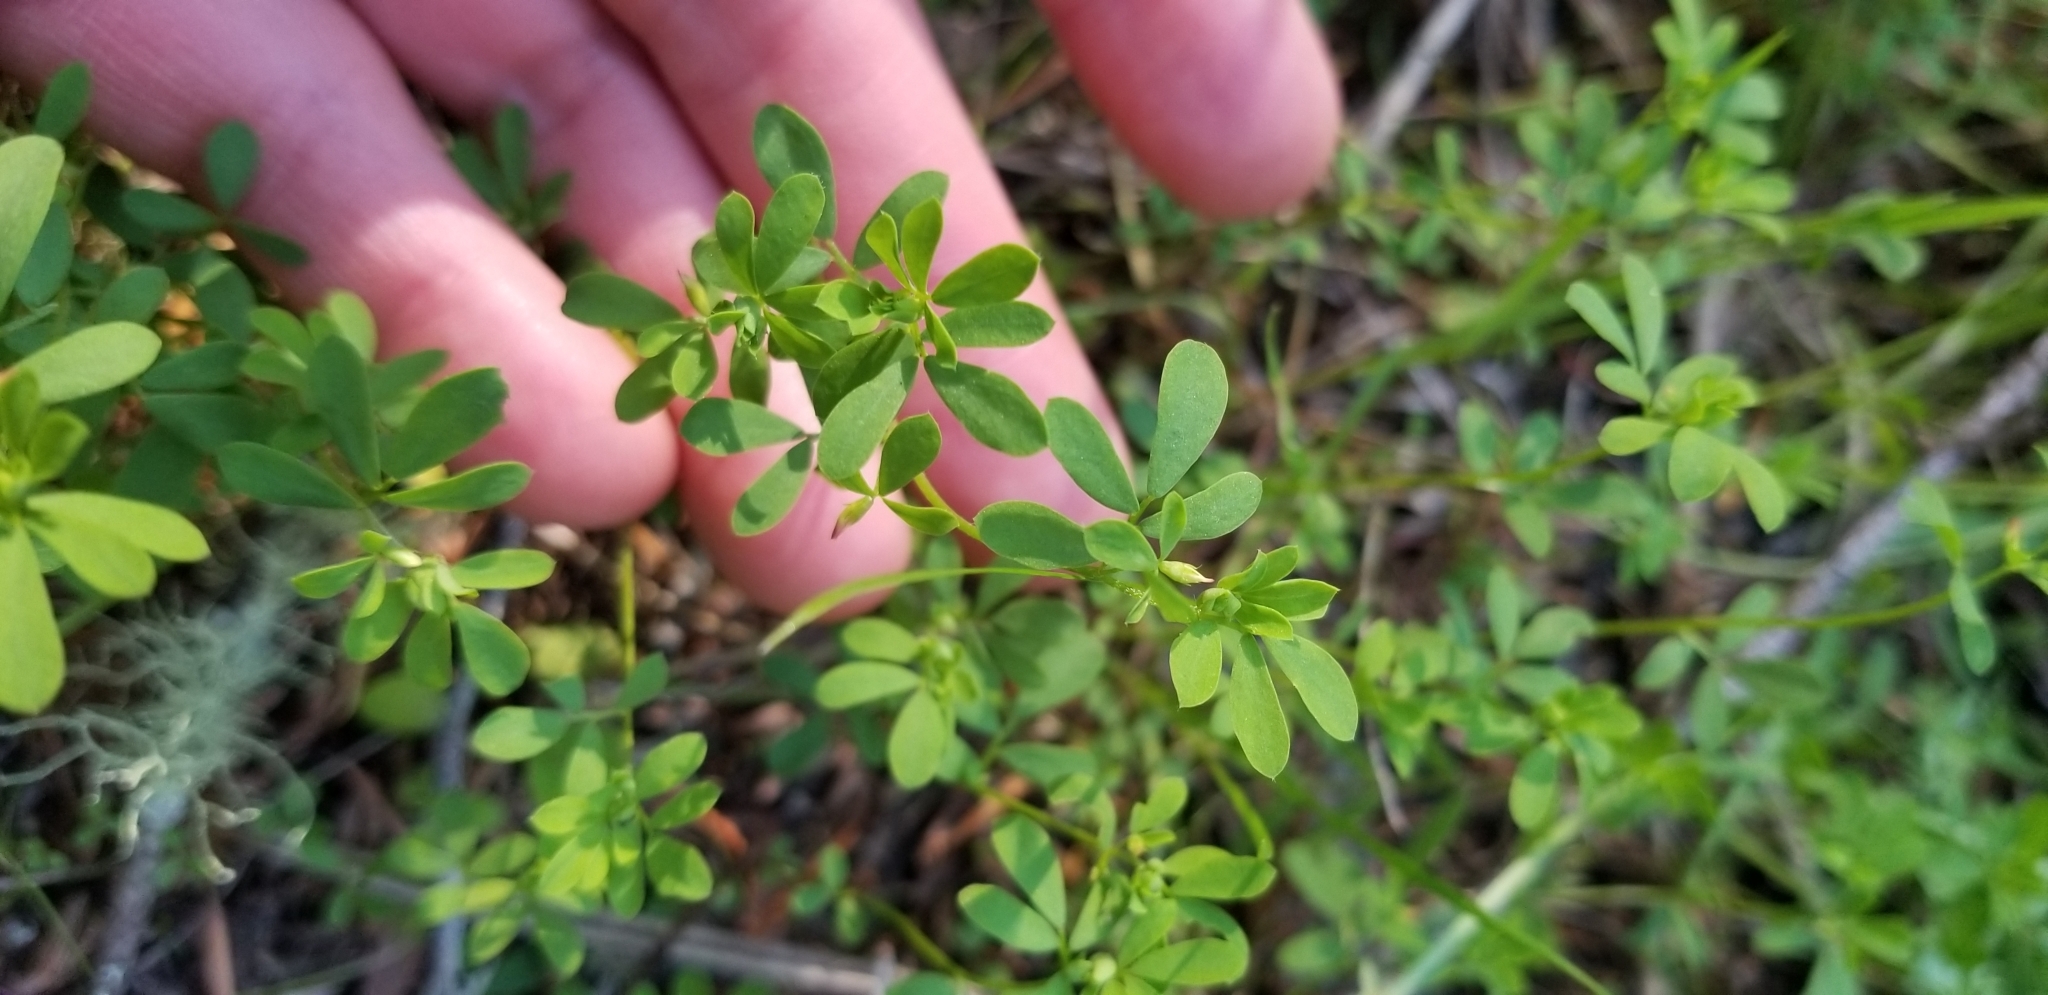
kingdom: Plantae
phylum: Tracheophyta
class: Magnoliopsida
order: Fabales
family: Fabaceae
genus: Acmispon
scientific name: Acmispon parviflorus
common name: Desert deer-vetch
